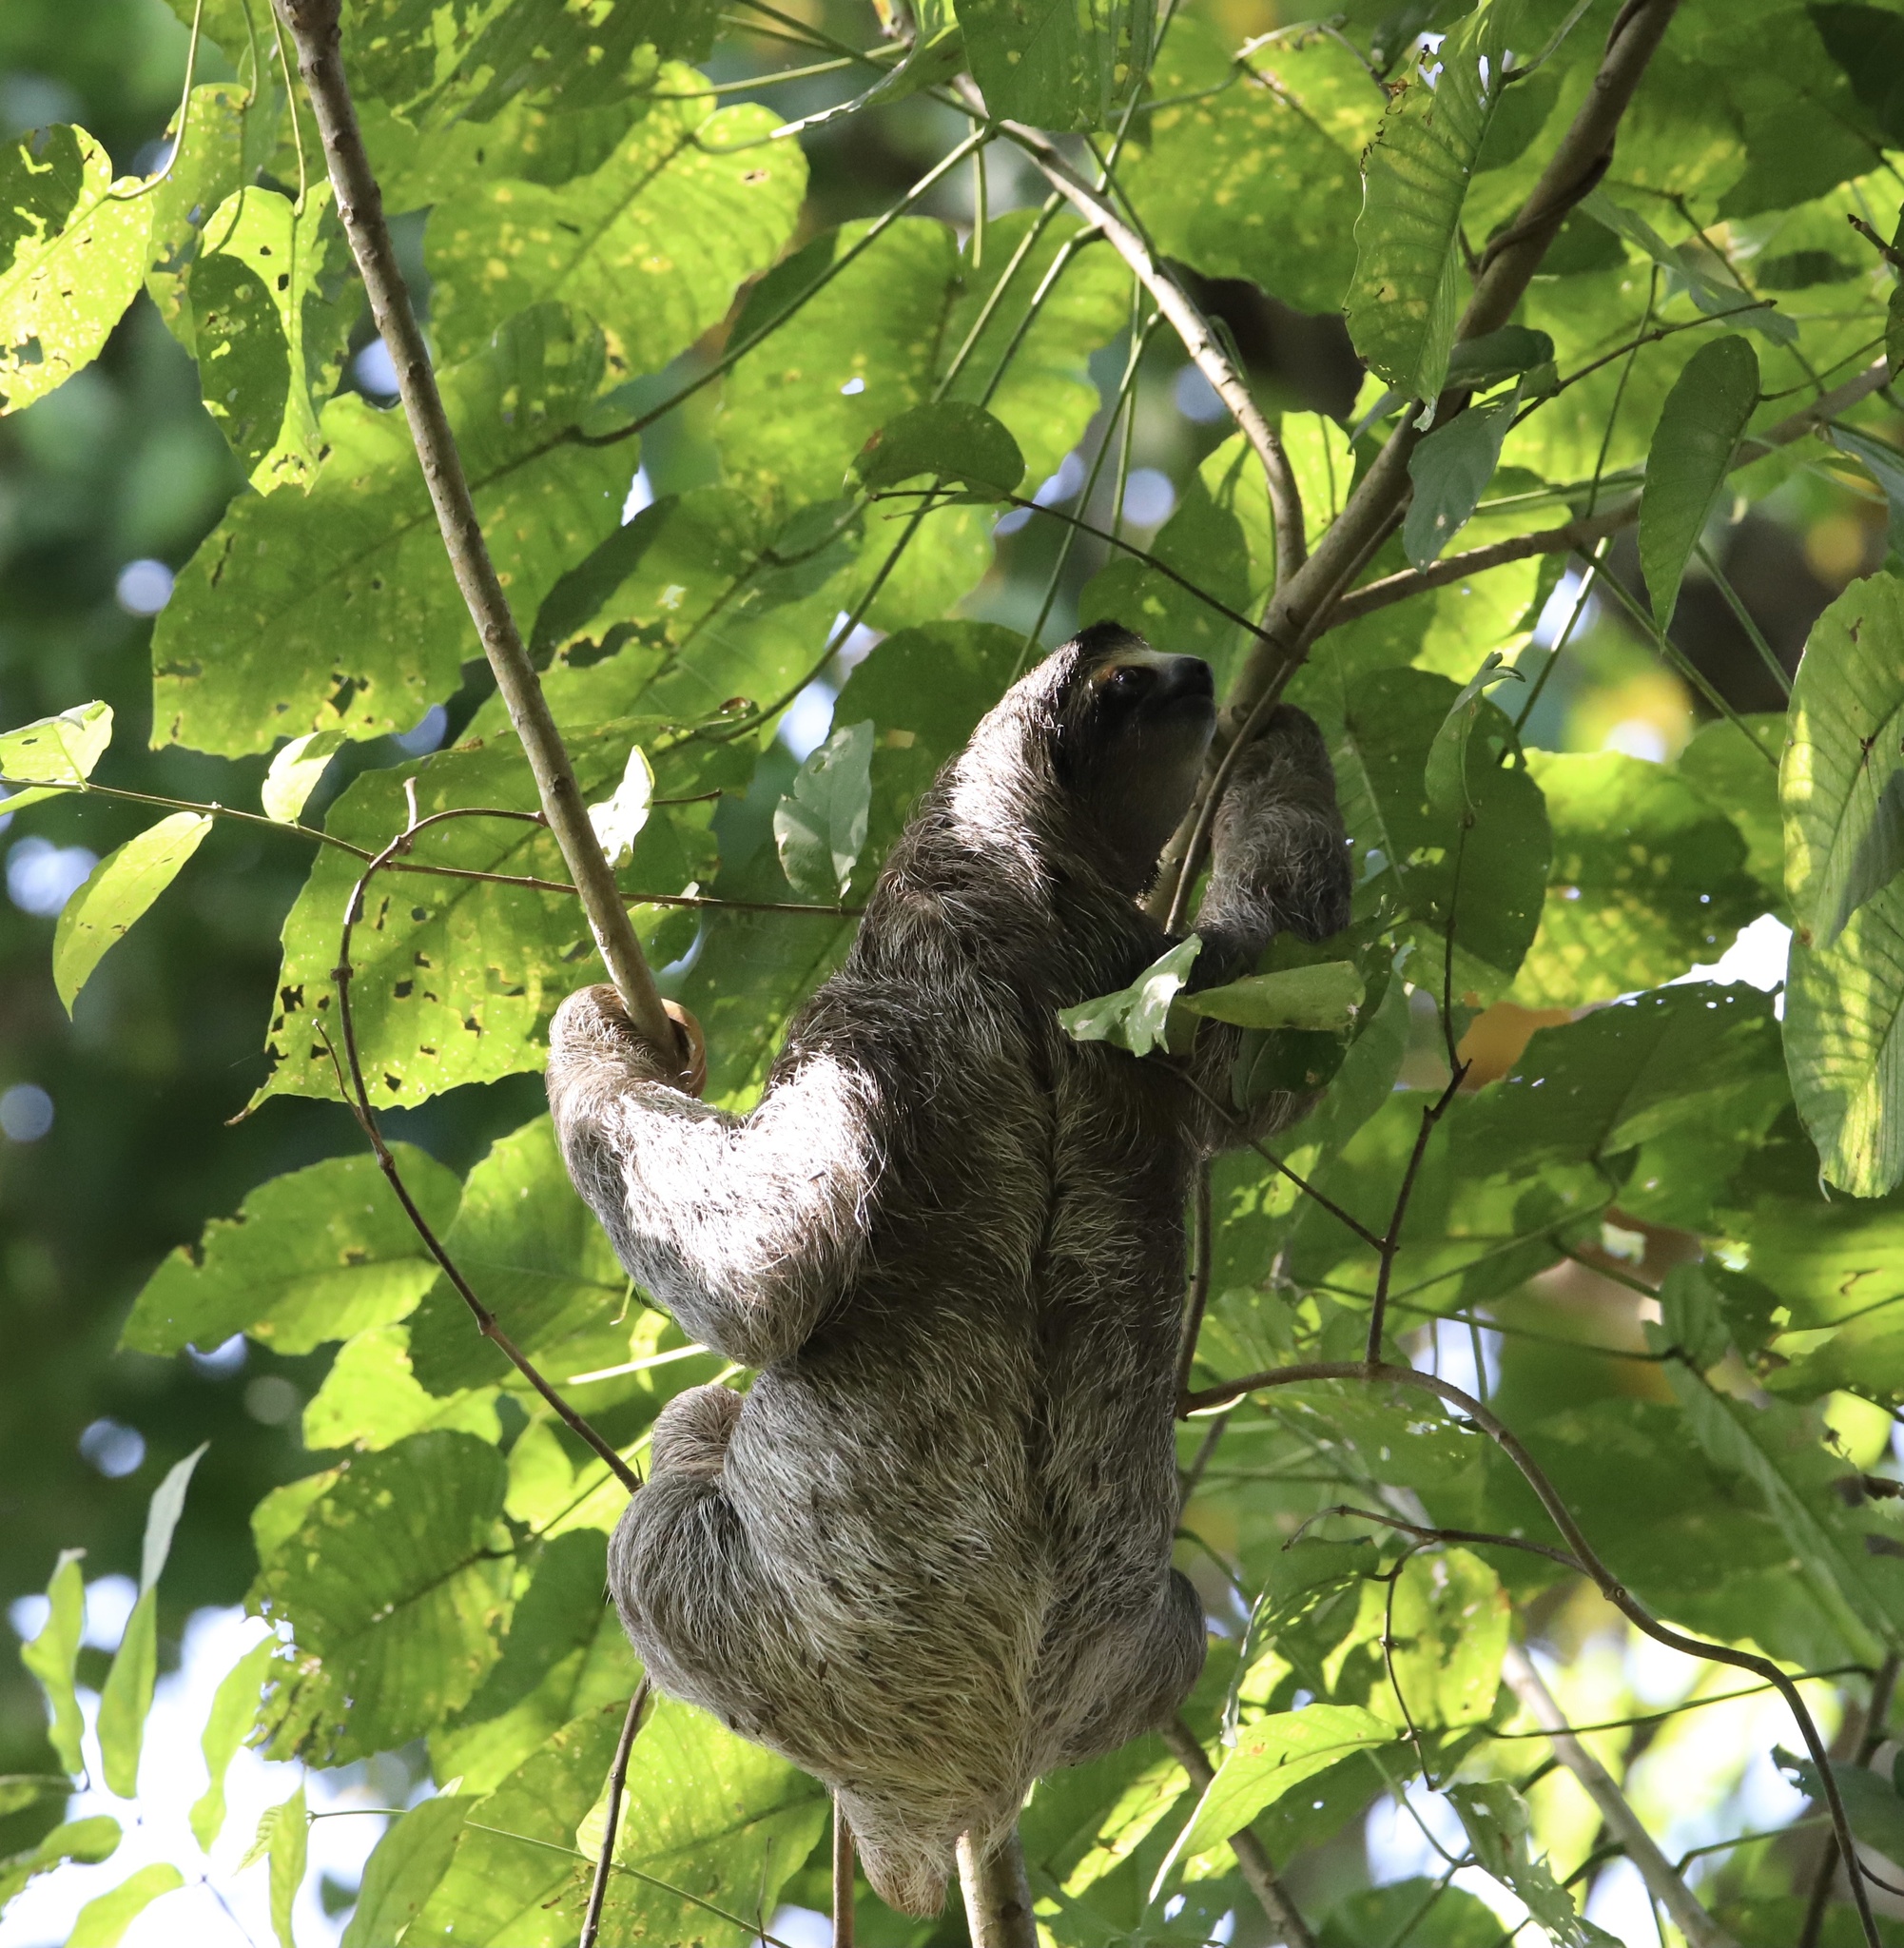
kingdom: Animalia
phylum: Chordata
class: Mammalia
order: Pilosa
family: Bradypodidae
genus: Bradypus
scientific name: Bradypus variegatus
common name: Brown-throated three-toed sloth
